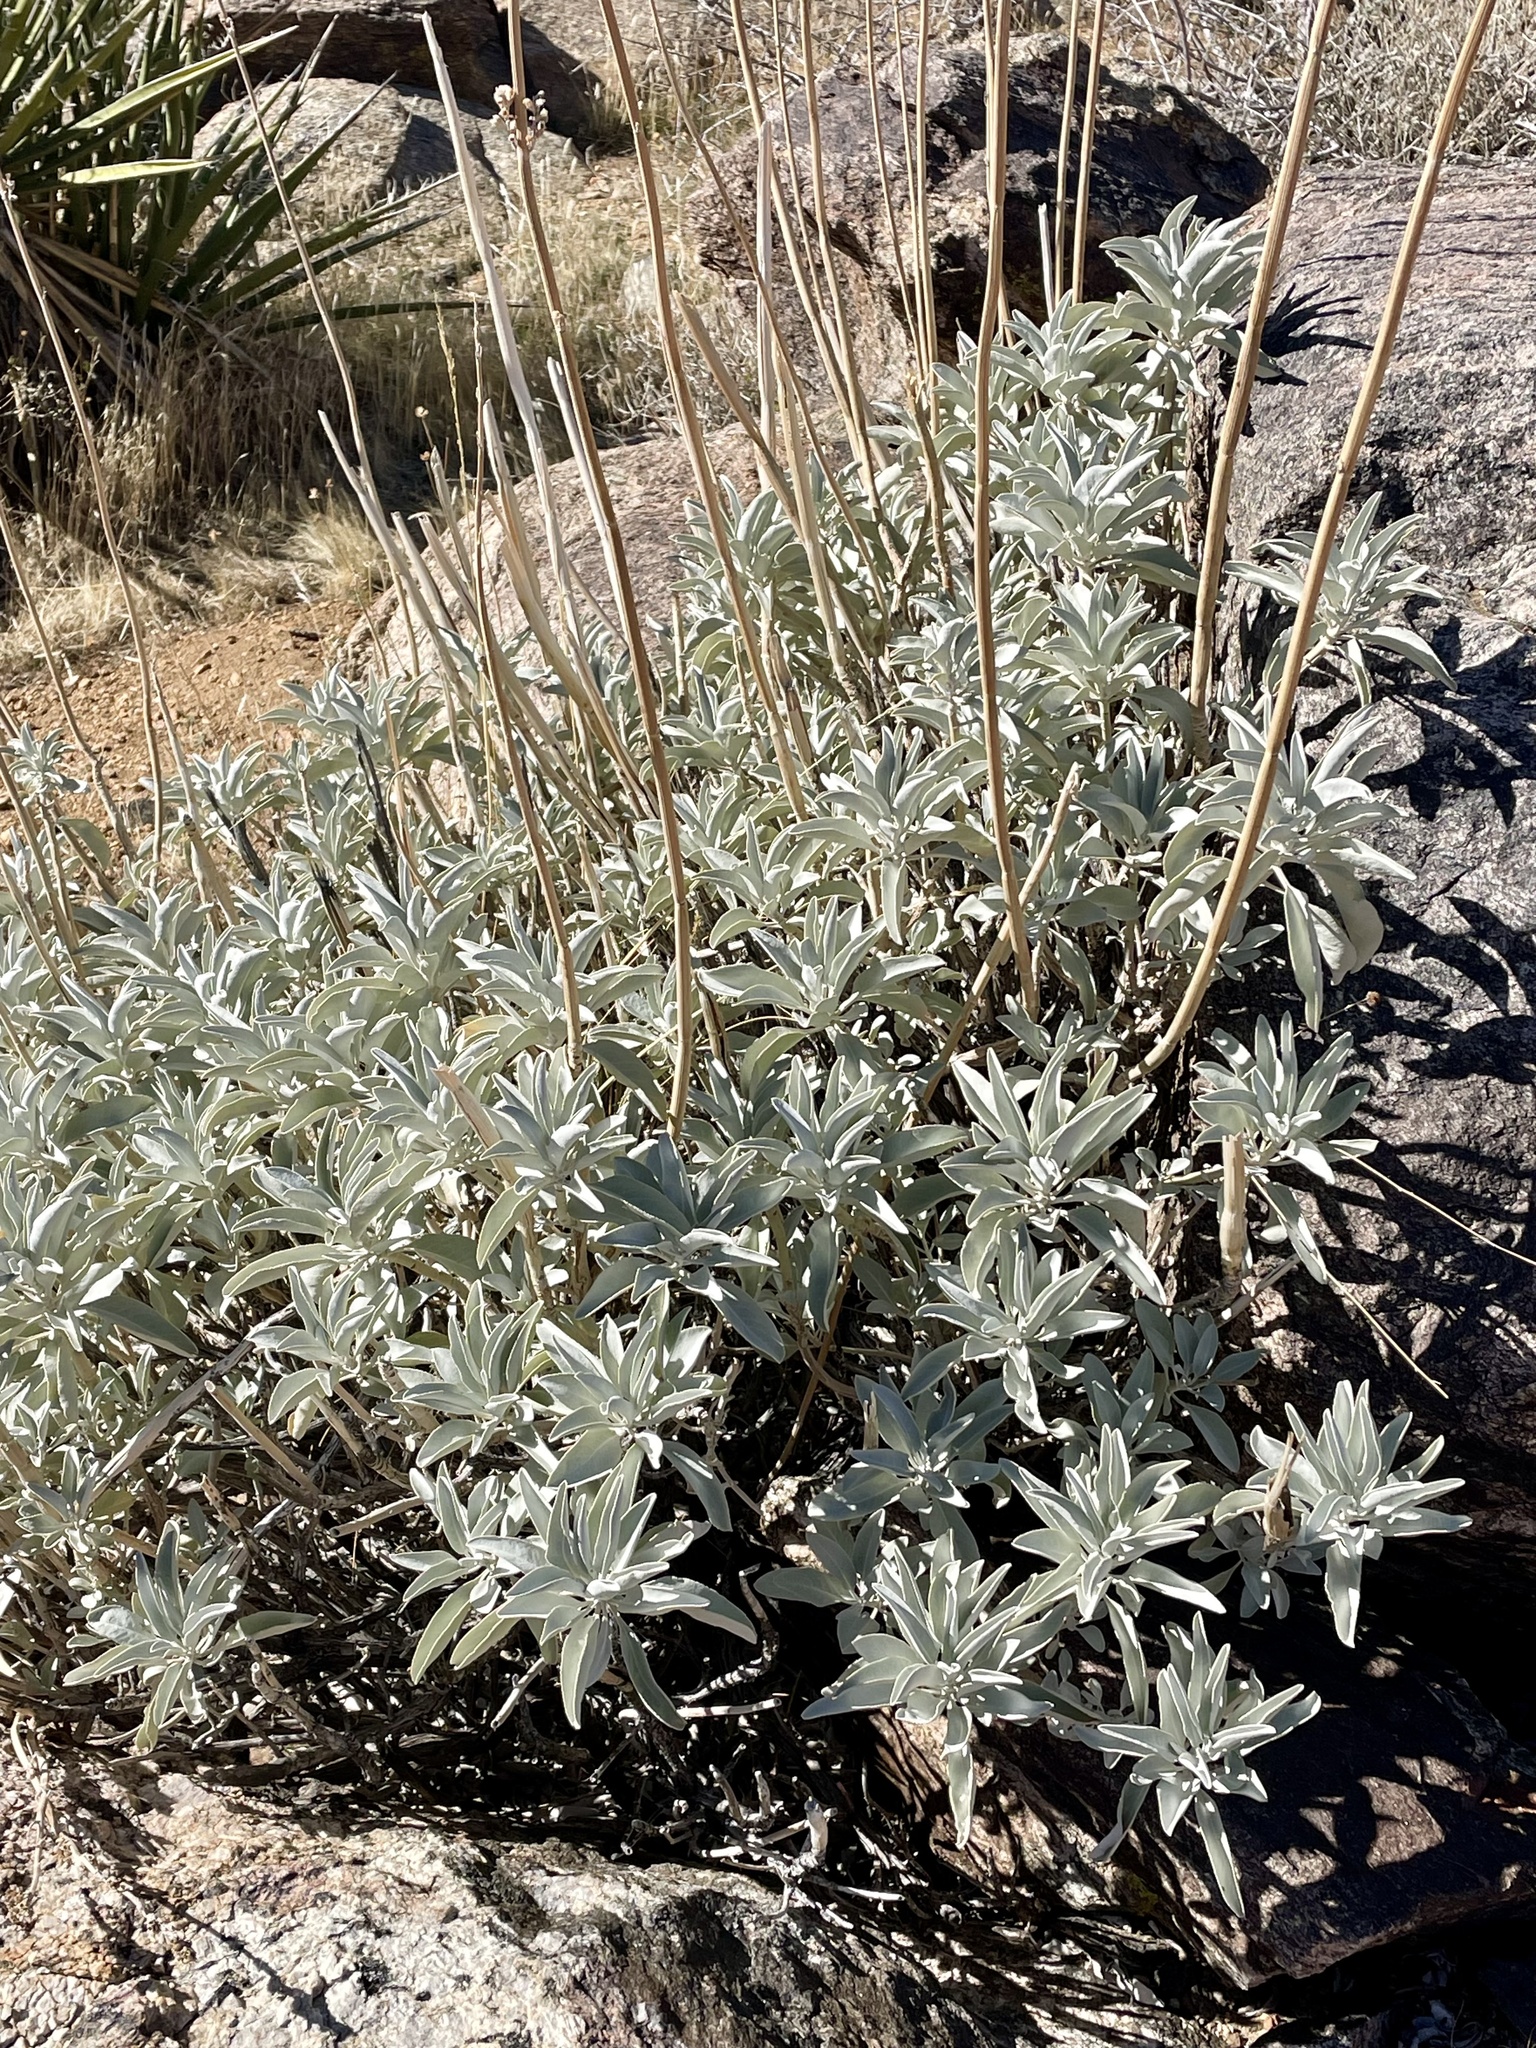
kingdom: Plantae
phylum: Tracheophyta
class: Magnoliopsida
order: Lamiales
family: Lamiaceae
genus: Salvia
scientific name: Salvia apiana
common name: White sage
